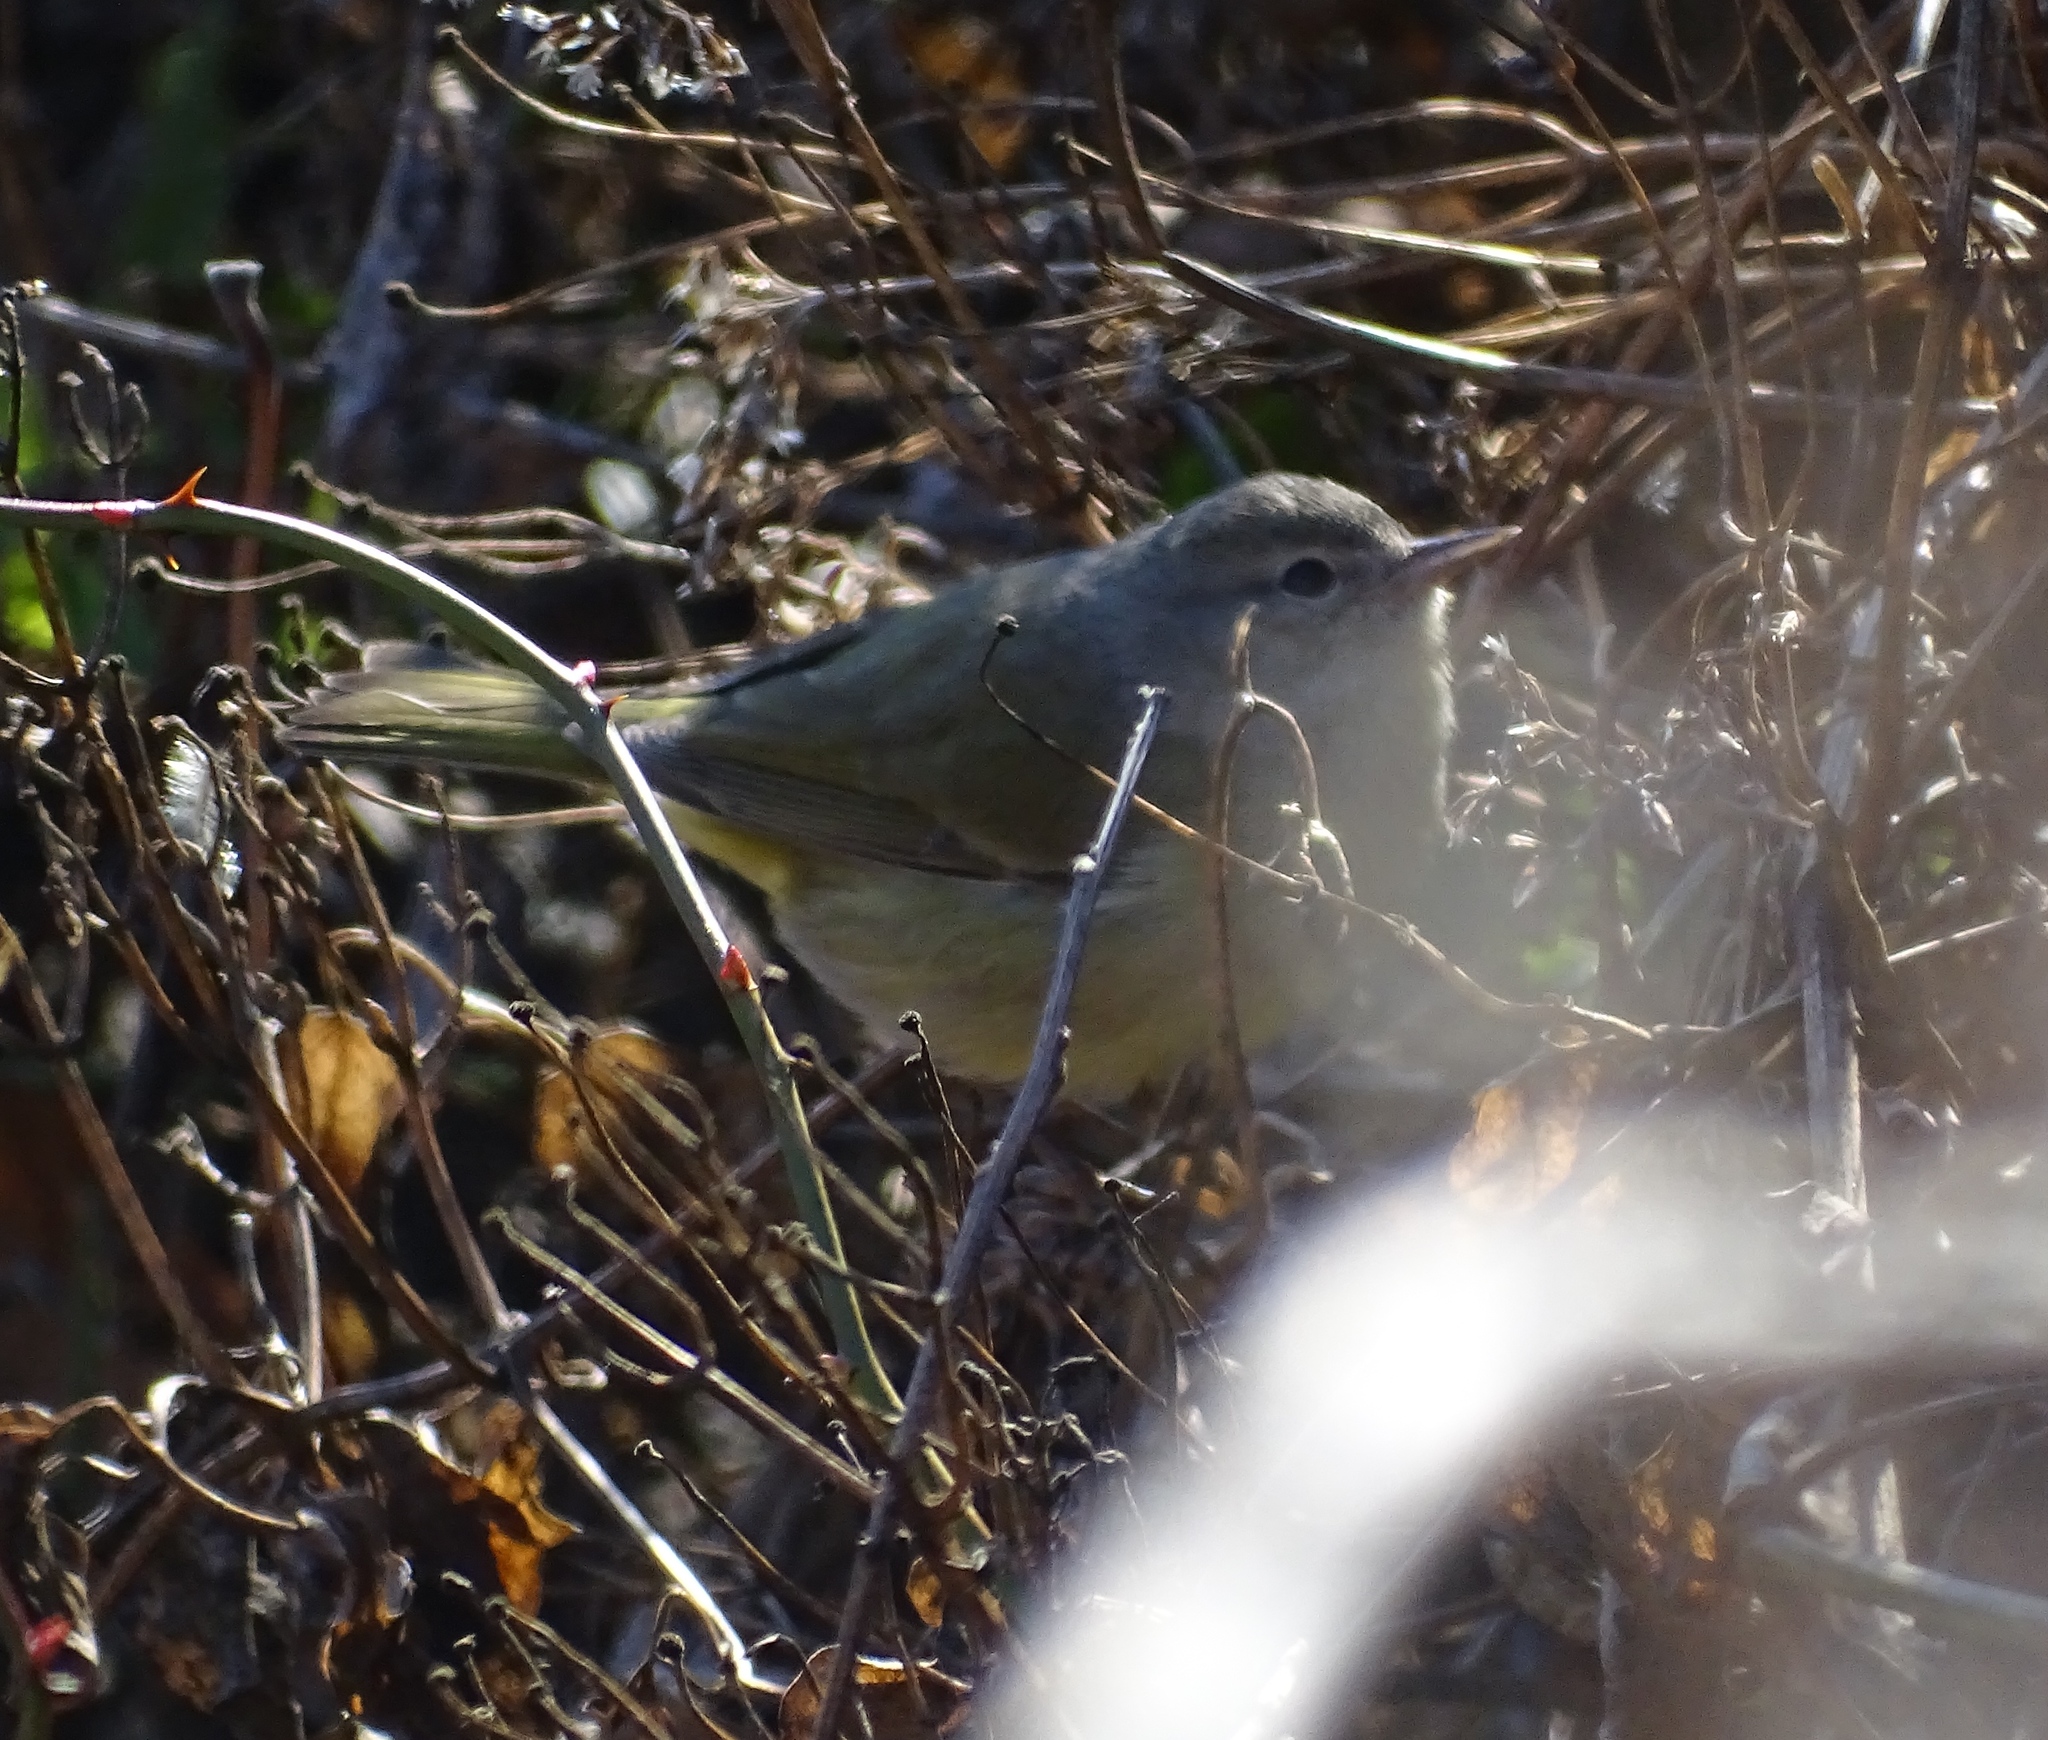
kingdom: Animalia
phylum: Chordata
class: Aves
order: Passeriformes
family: Parulidae
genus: Leiothlypis
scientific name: Leiothlypis celata
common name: Orange-crowned warbler
